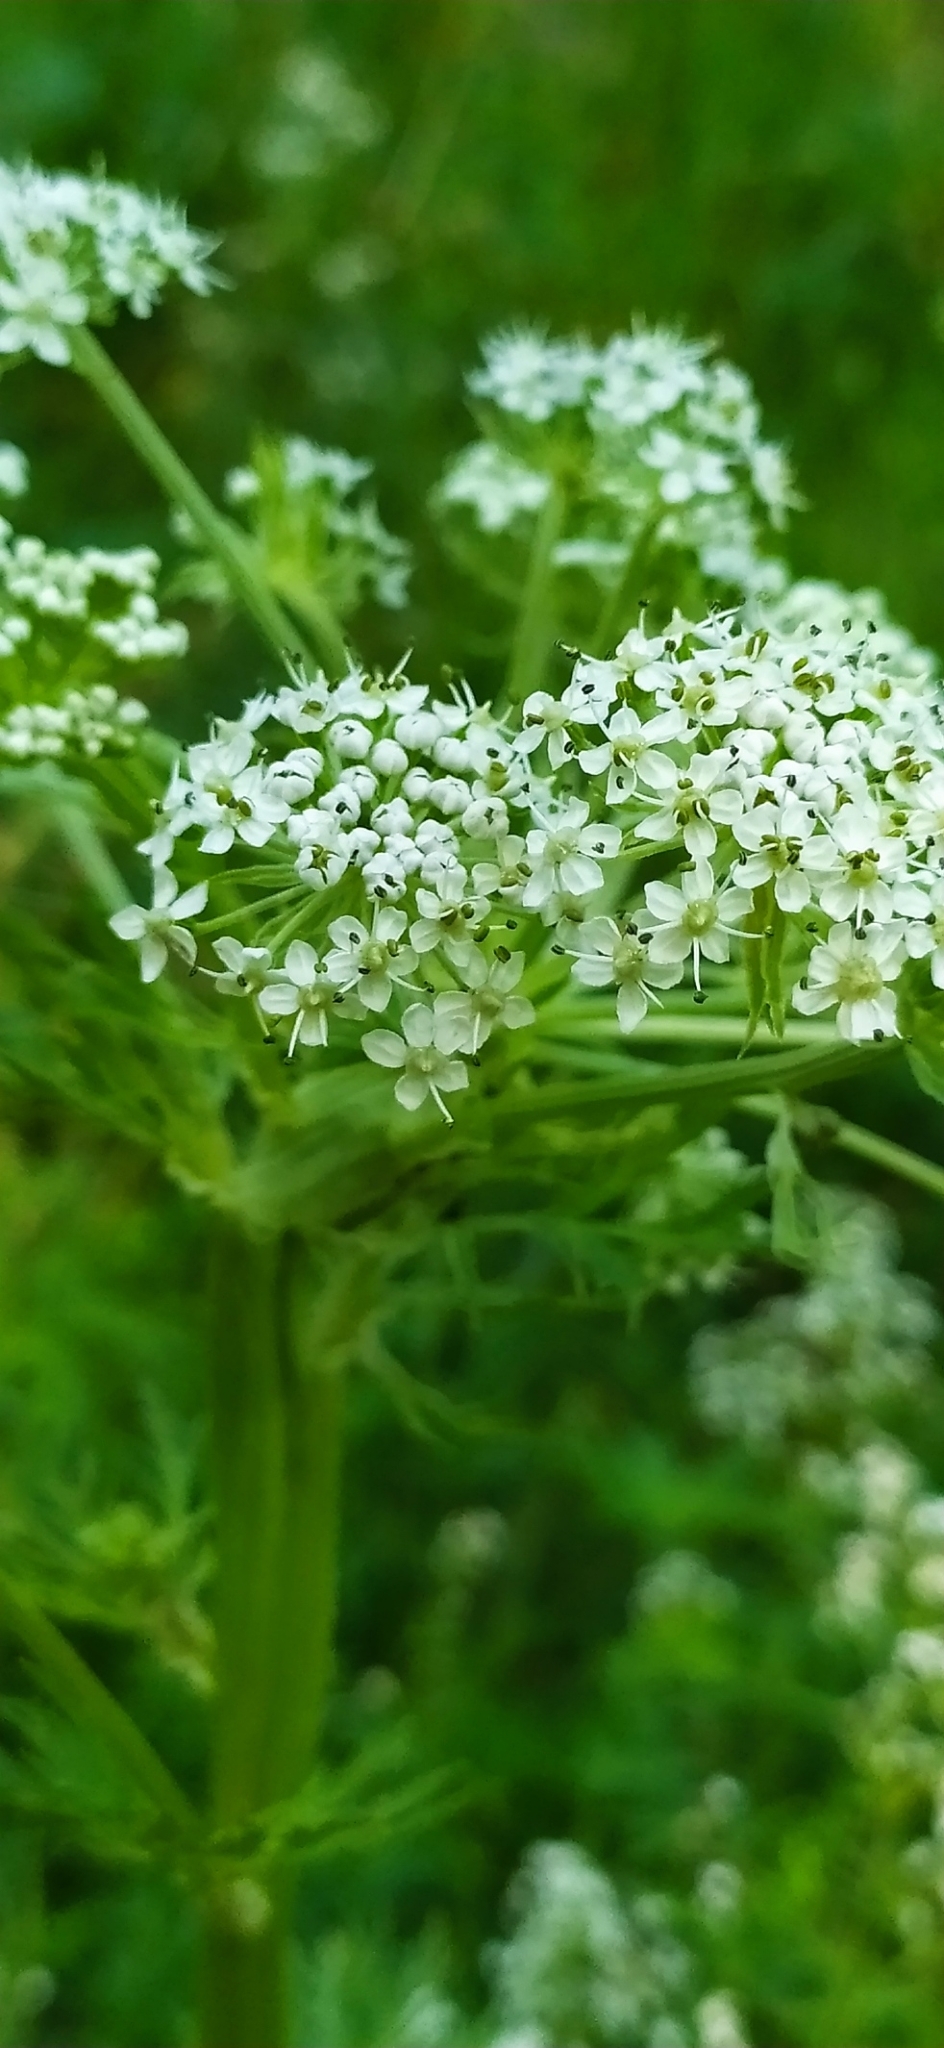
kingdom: Plantae
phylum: Tracheophyta
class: Magnoliopsida
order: Apiales
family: Apiaceae
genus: Pleurospermum
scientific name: Pleurospermum uralense
